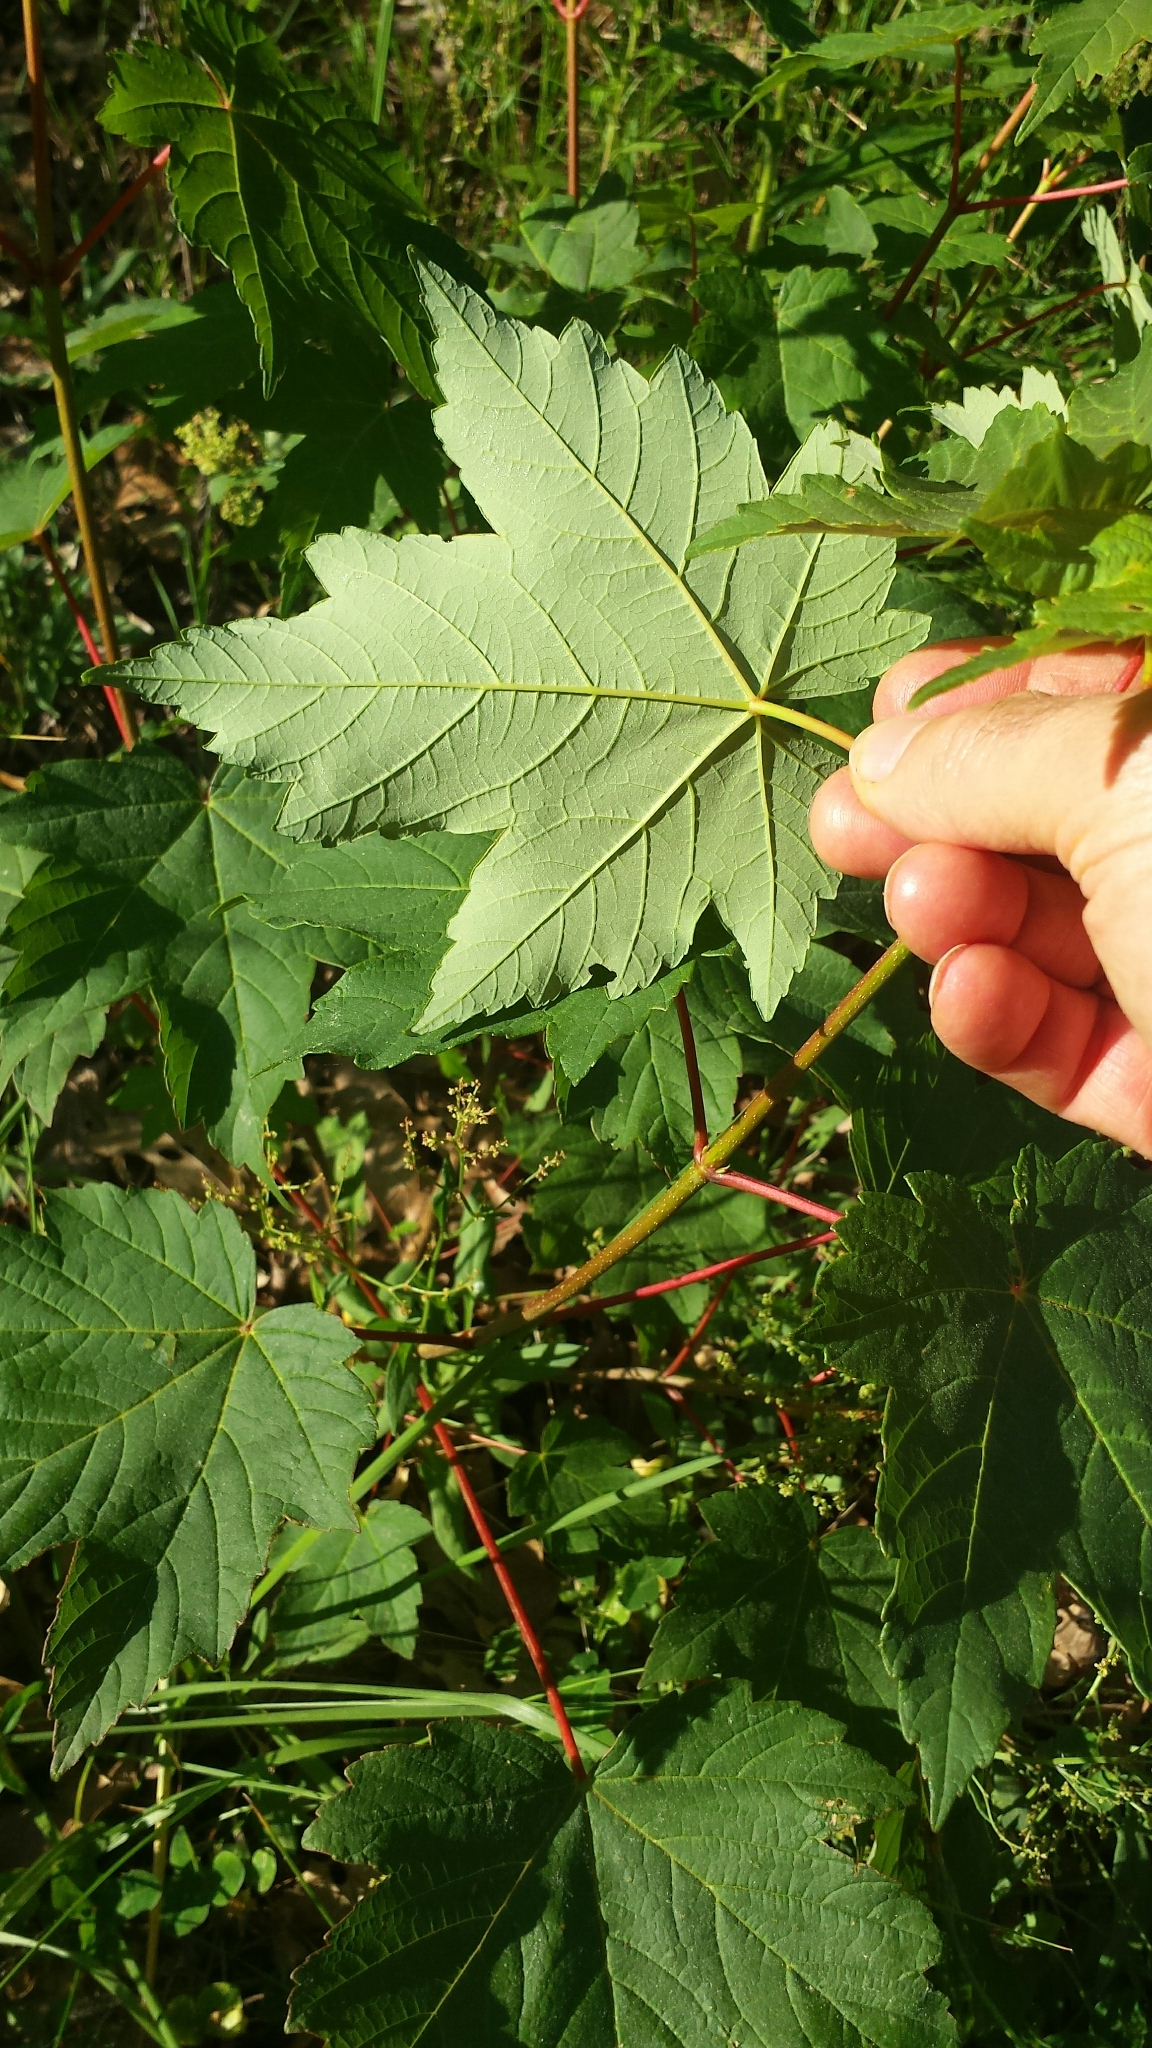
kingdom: Plantae
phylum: Tracheophyta
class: Magnoliopsida
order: Sapindales
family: Sapindaceae
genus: Acer
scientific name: Acer pseudoplatanus
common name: Sycamore
